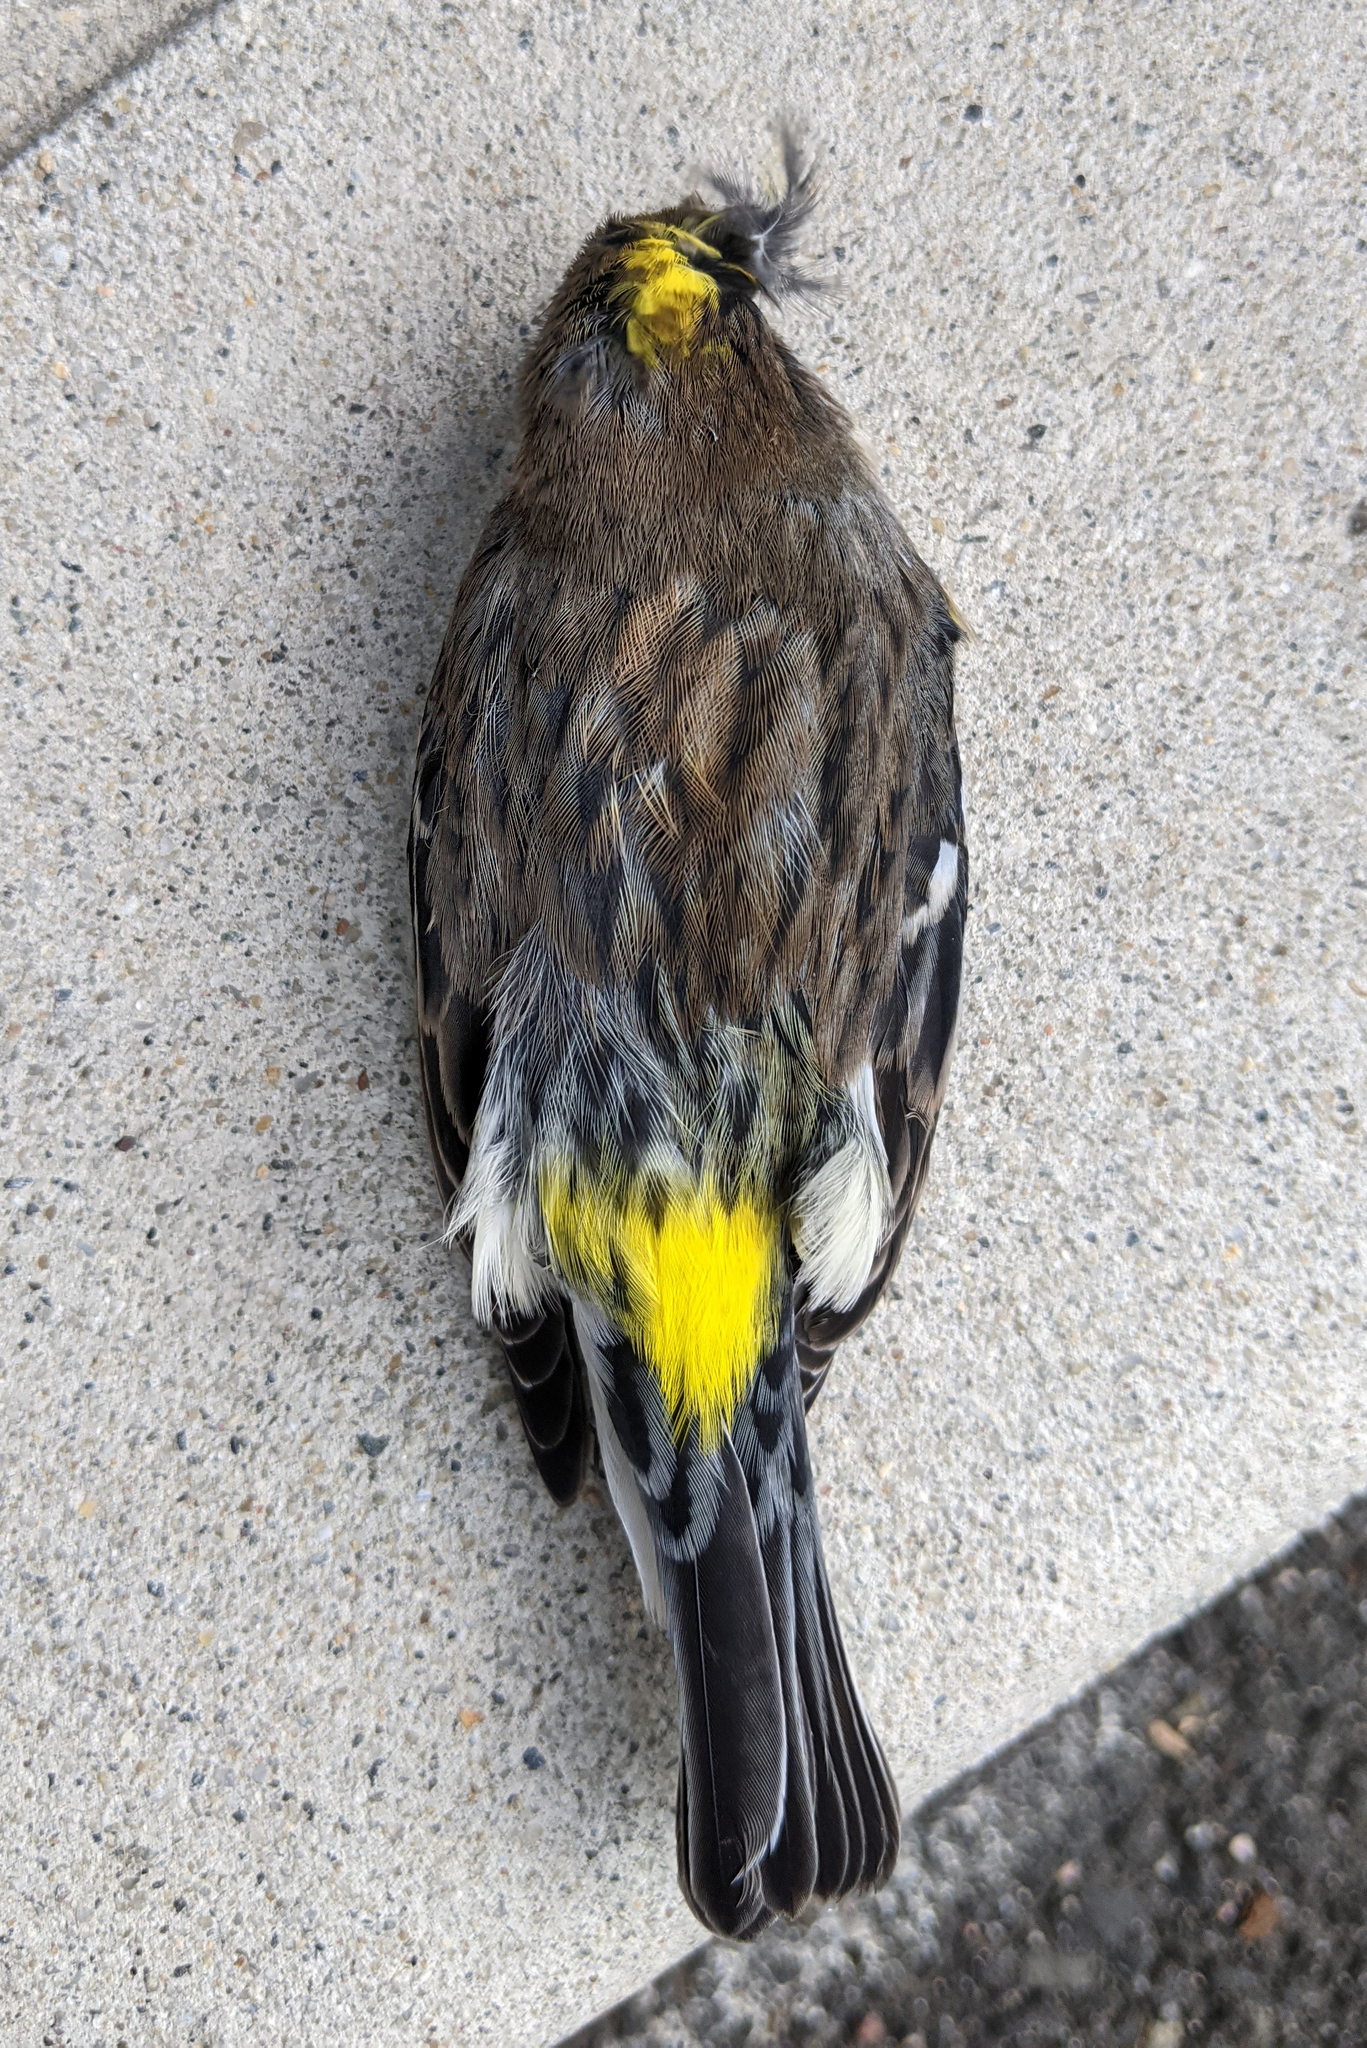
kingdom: Animalia
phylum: Chordata
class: Aves
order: Passeriformes
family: Parulidae
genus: Setophaga
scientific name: Setophaga coronata
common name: Myrtle warbler
